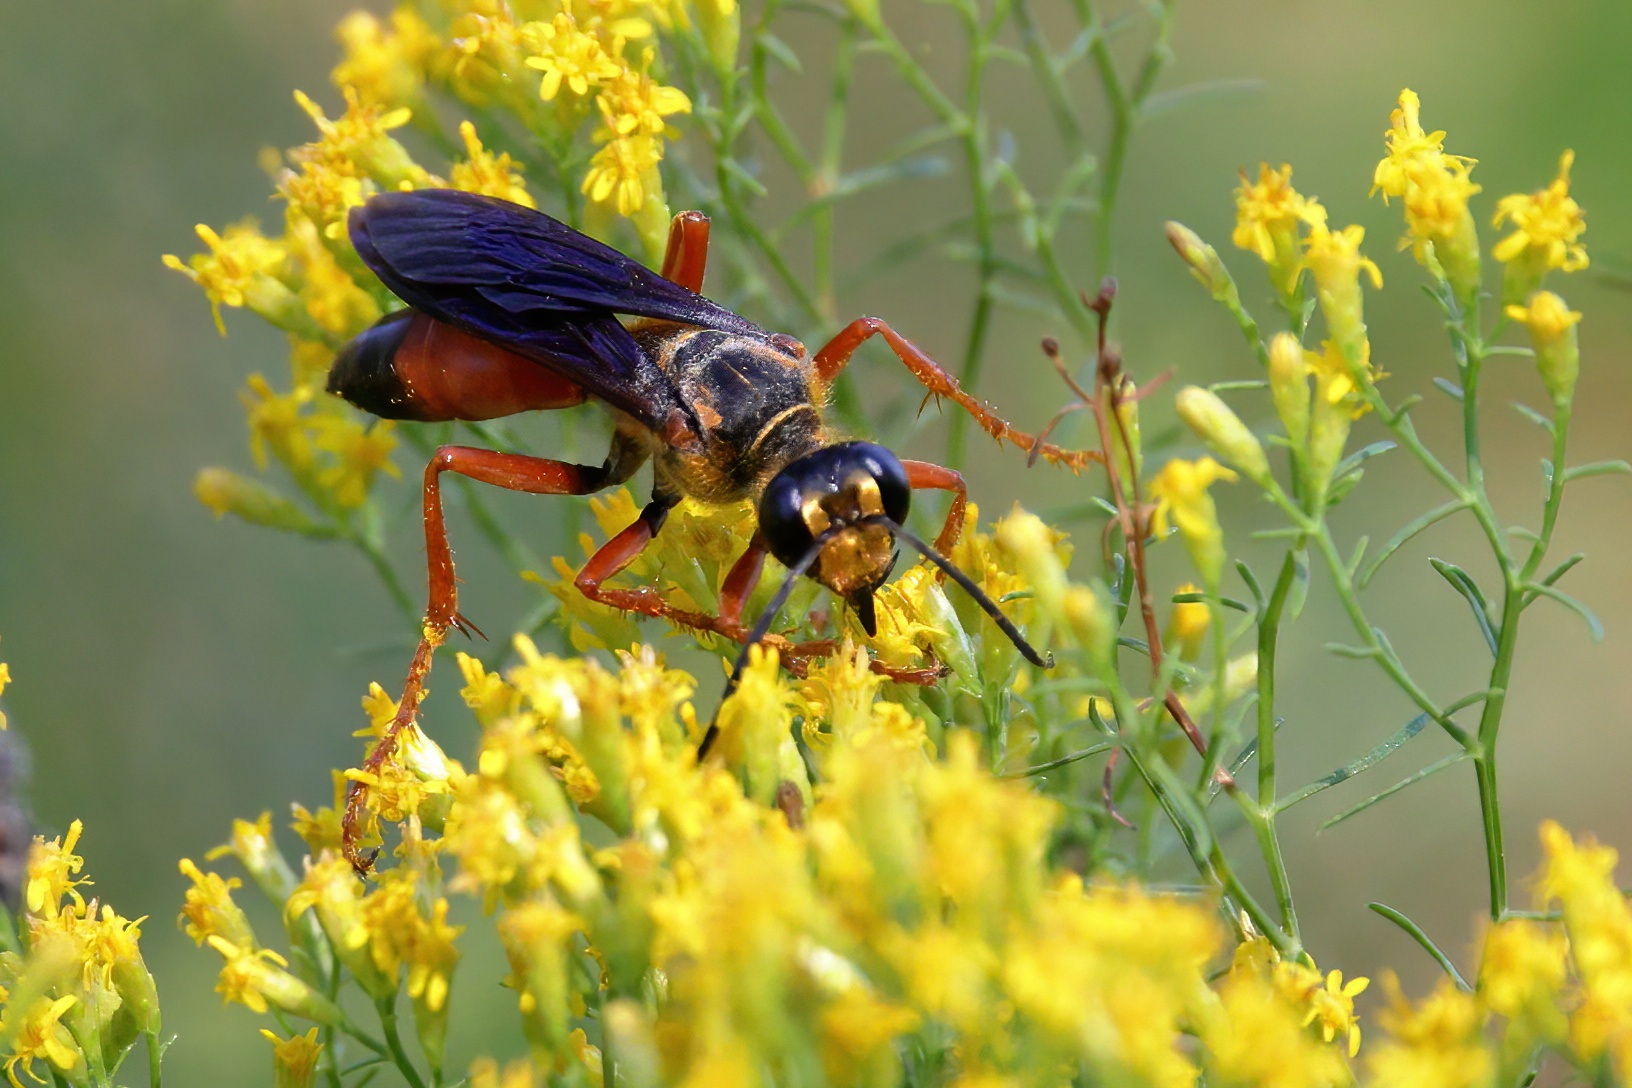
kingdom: Animalia
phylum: Arthropoda
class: Insecta
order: Hymenoptera
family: Sphecidae
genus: Sphex
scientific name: Sphex ichneumoneus
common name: Great golden digger wasp
